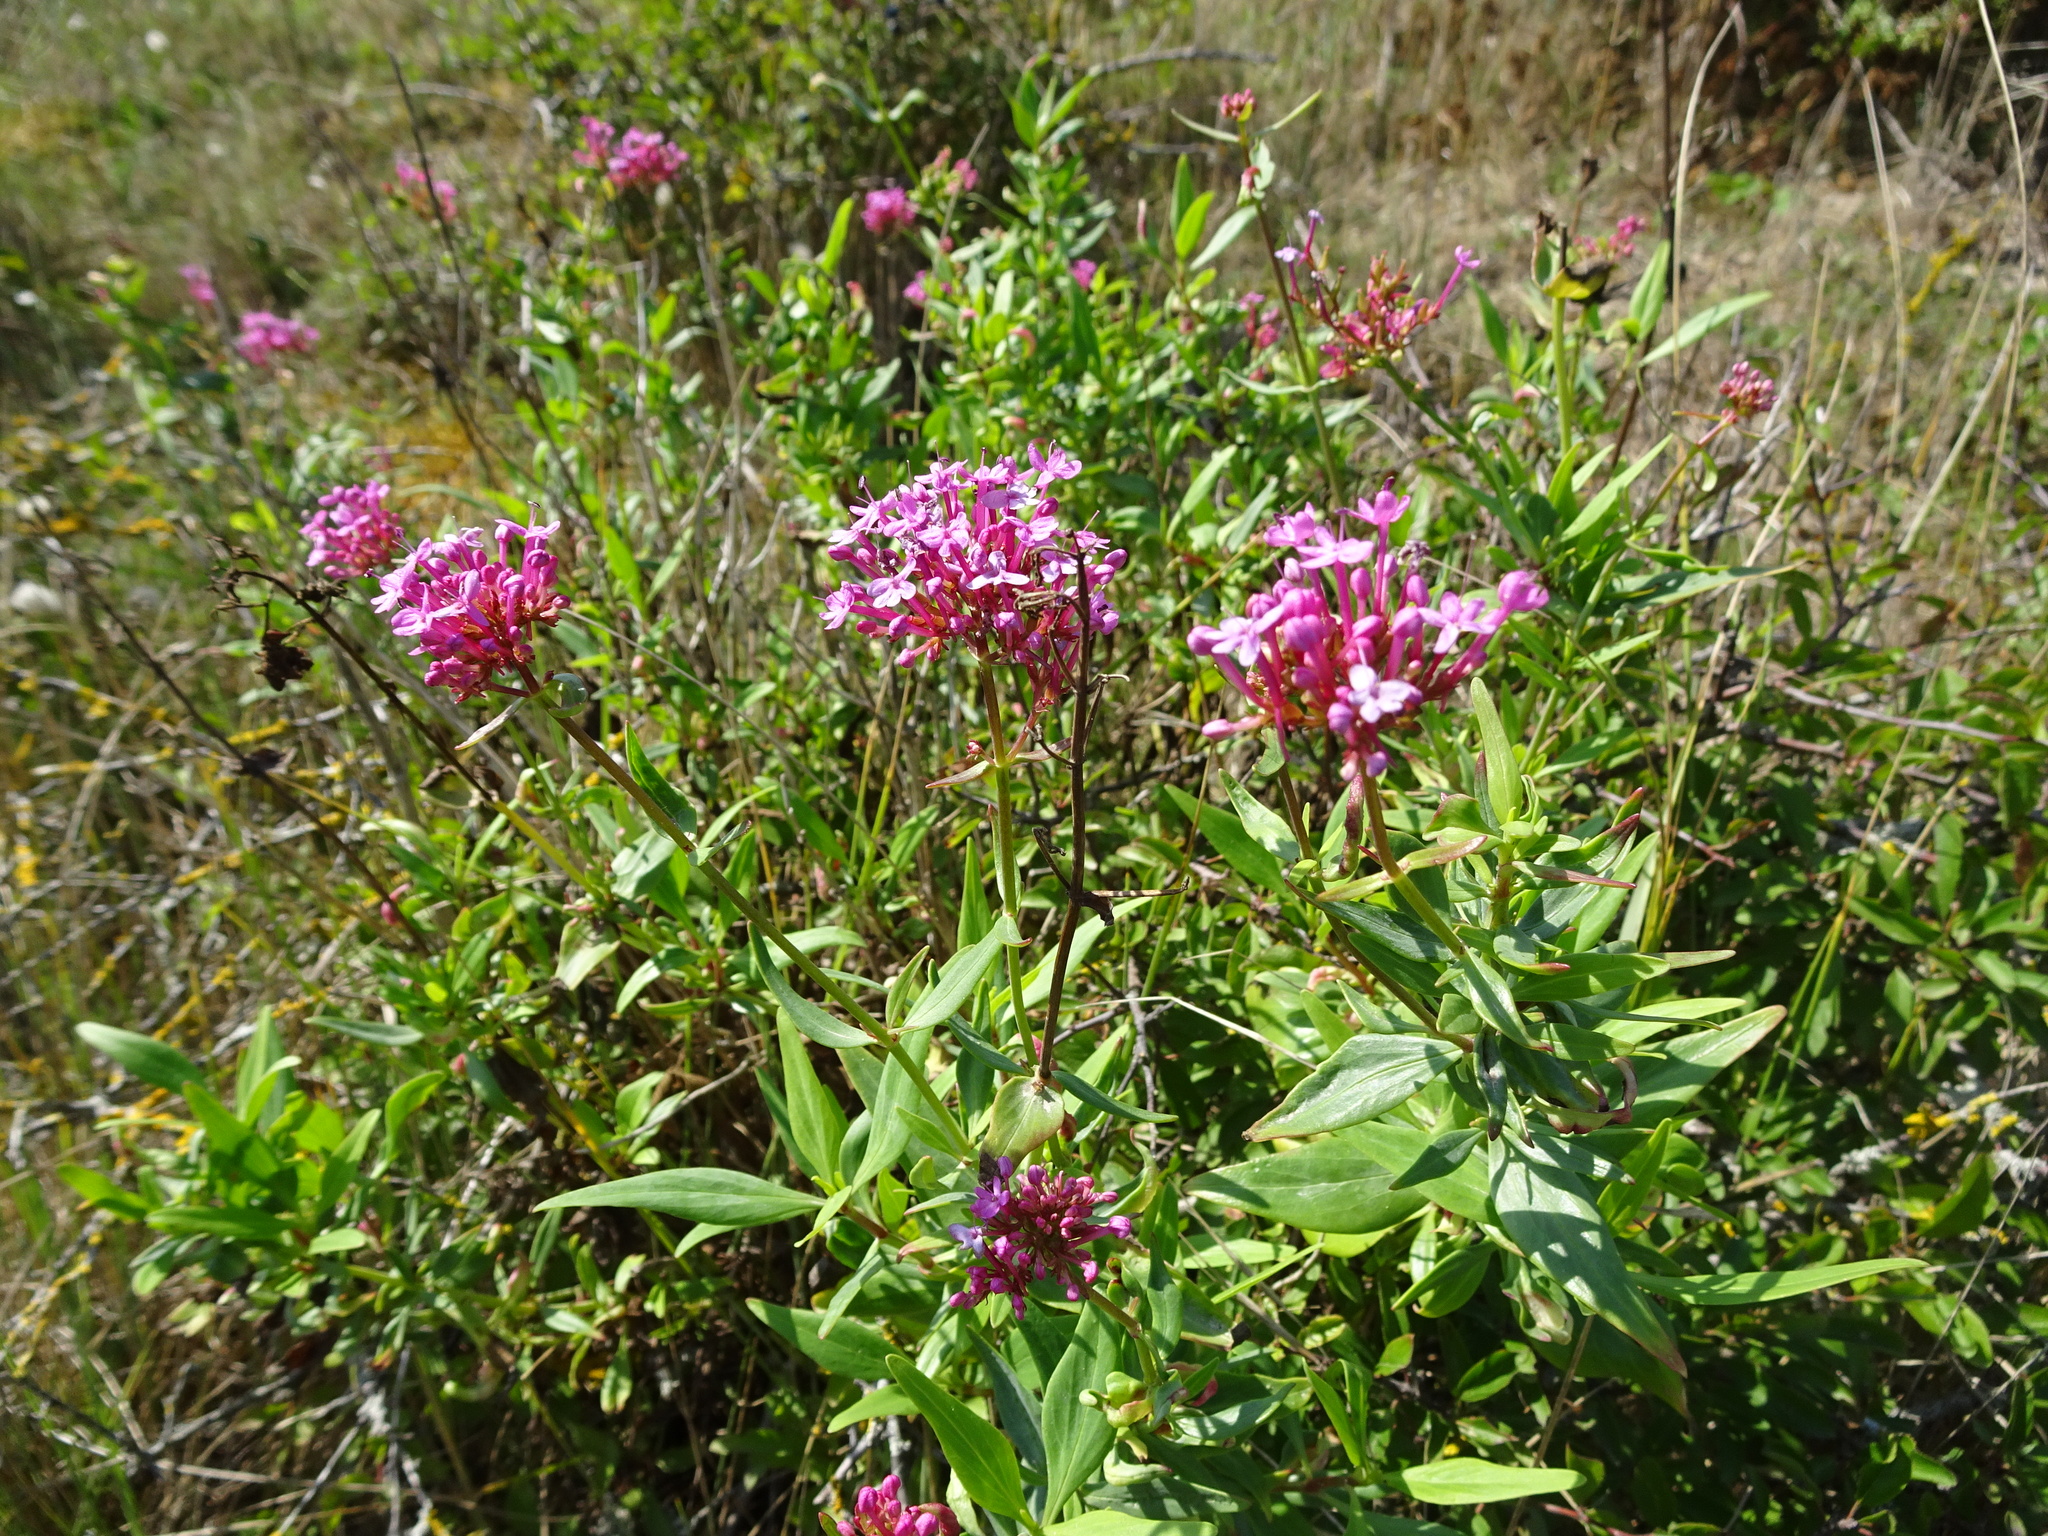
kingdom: Plantae
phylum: Tracheophyta
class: Magnoliopsida
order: Dipsacales
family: Caprifoliaceae
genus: Centranthus
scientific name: Centranthus ruber
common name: Red valerian
